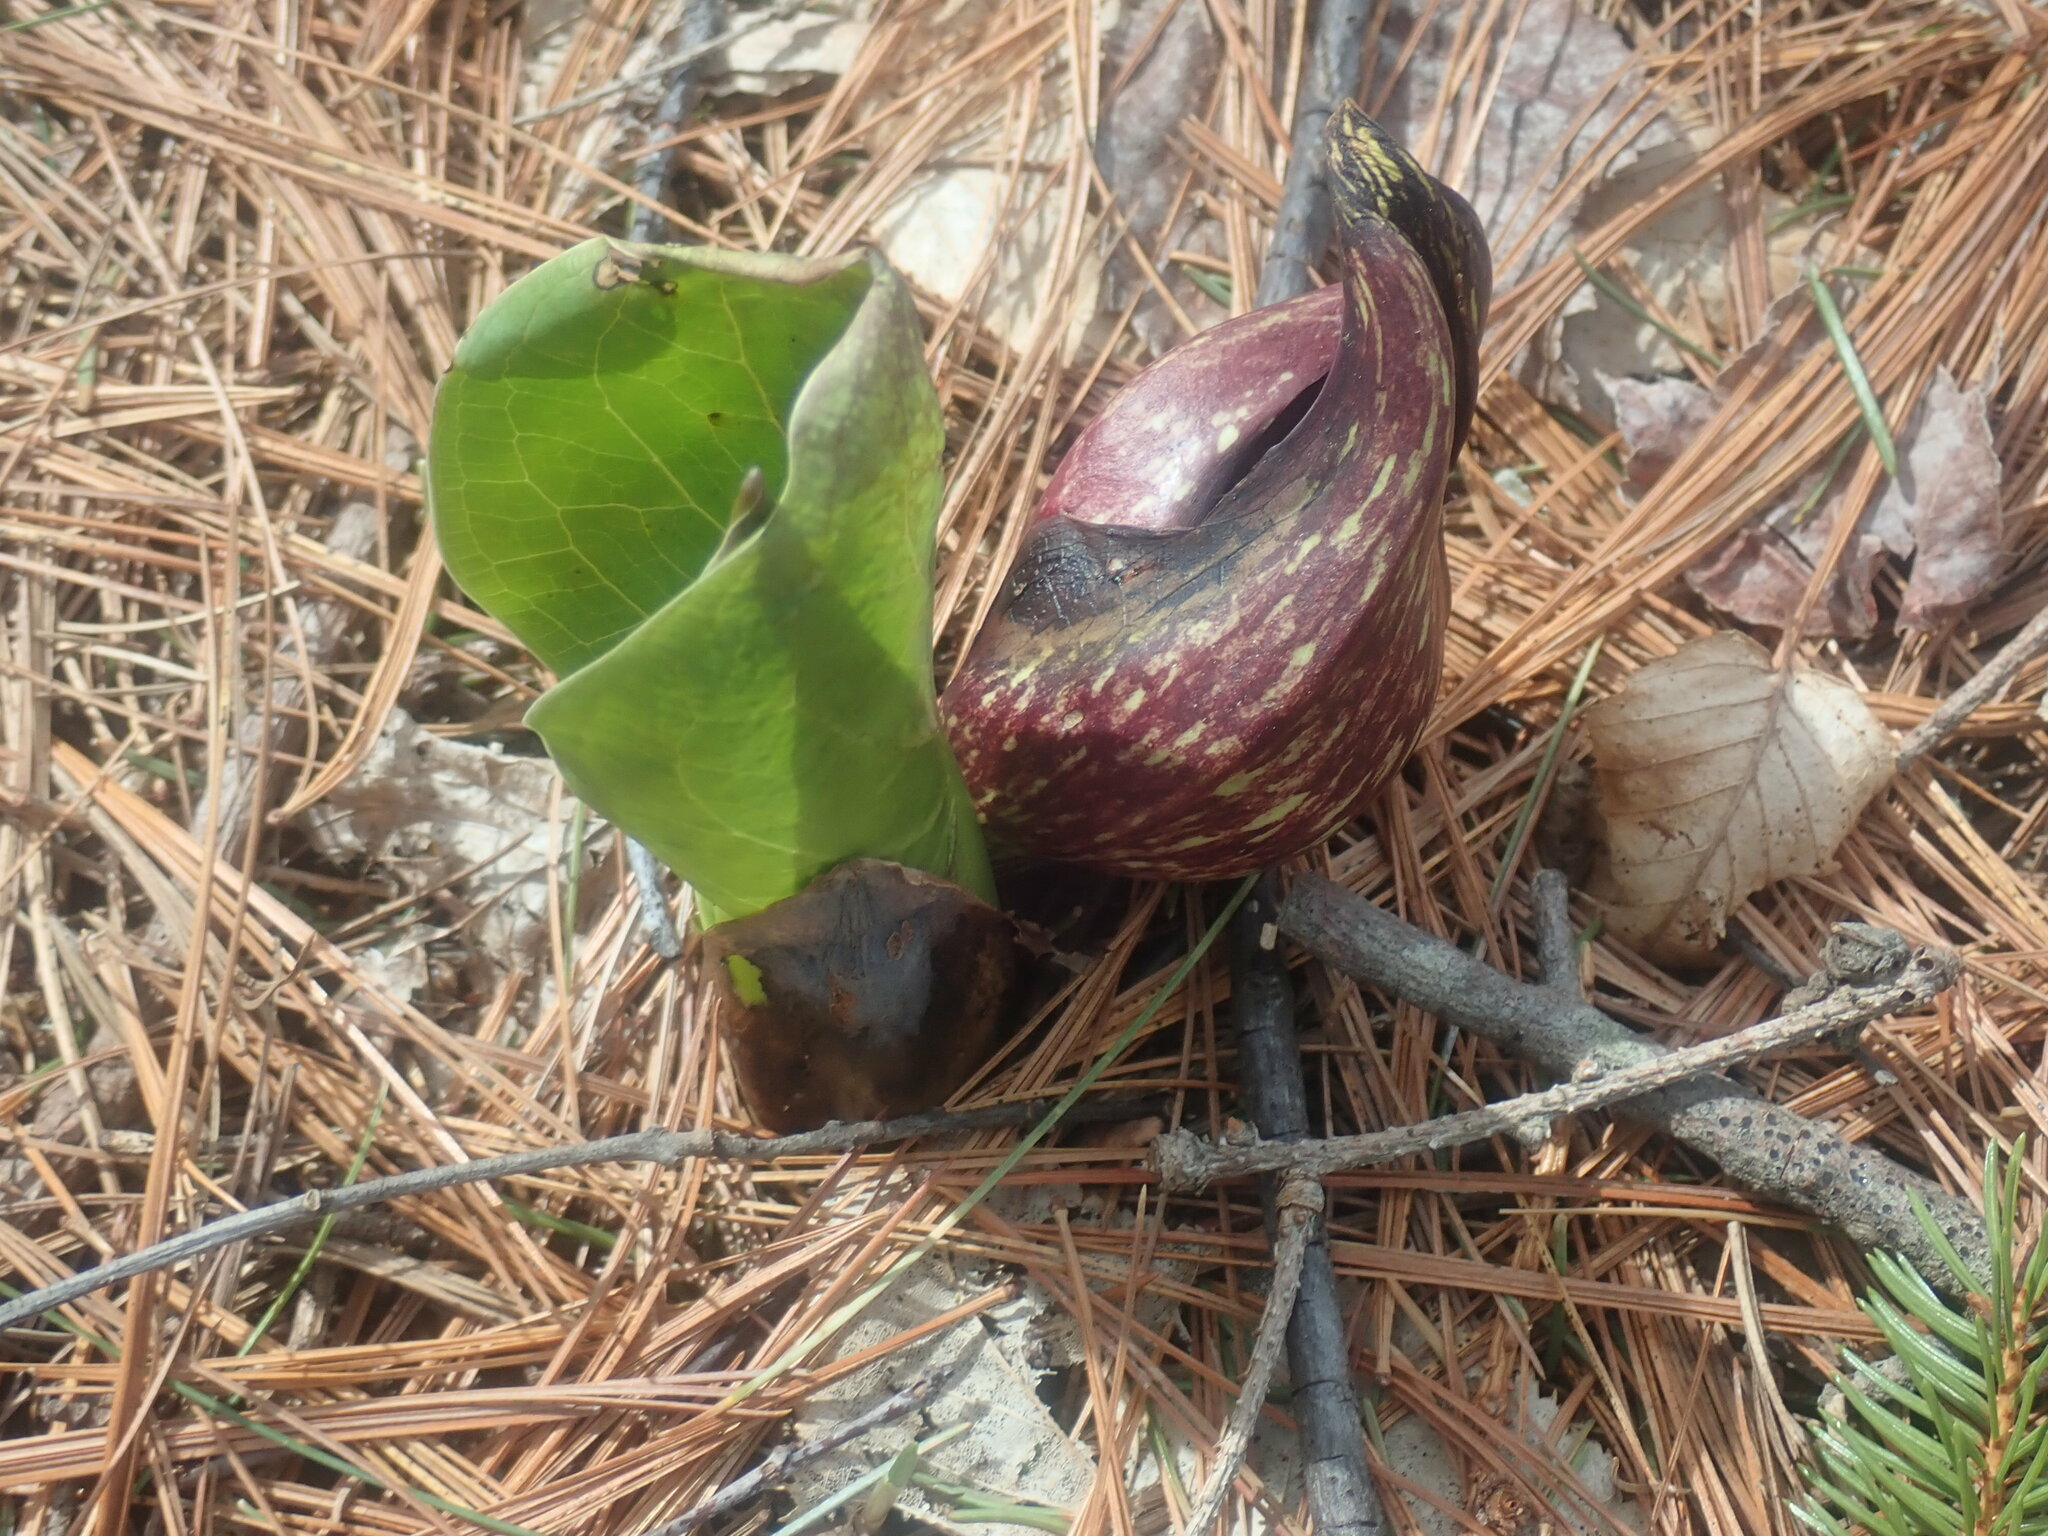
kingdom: Plantae
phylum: Tracheophyta
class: Liliopsida
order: Alismatales
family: Araceae
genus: Symplocarpus
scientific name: Symplocarpus foetidus
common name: Eastern skunk cabbage
